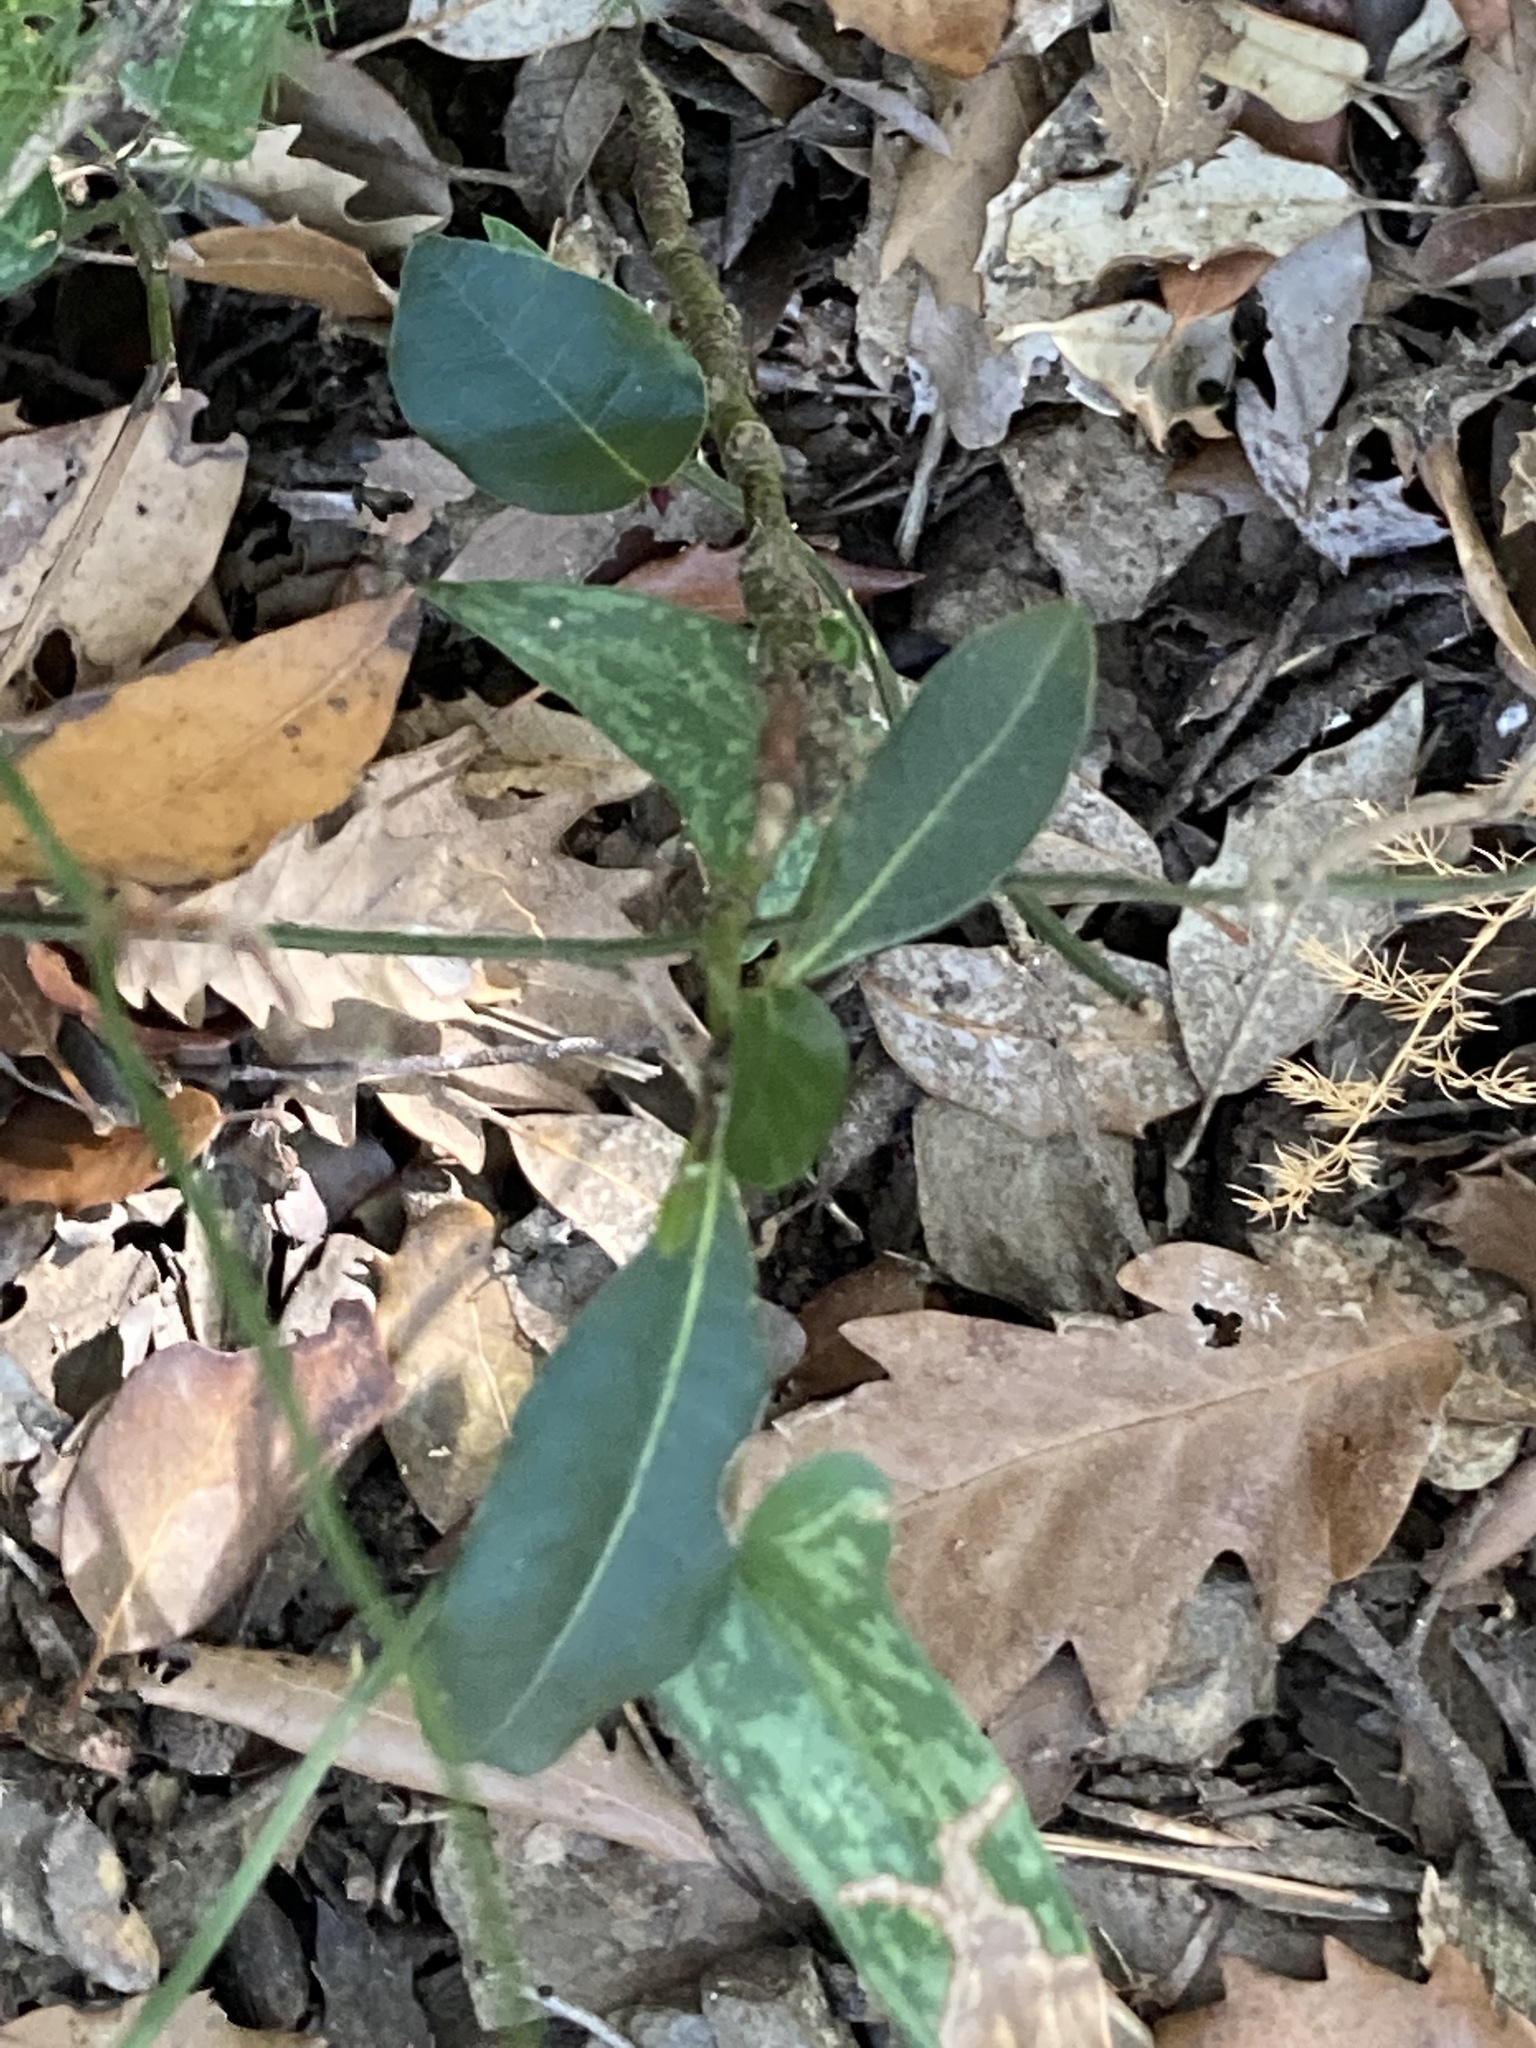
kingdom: Plantae
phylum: Tracheophyta
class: Magnoliopsida
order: Laurales
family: Lauraceae
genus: Laurus
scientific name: Laurus nobilis
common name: Bay
